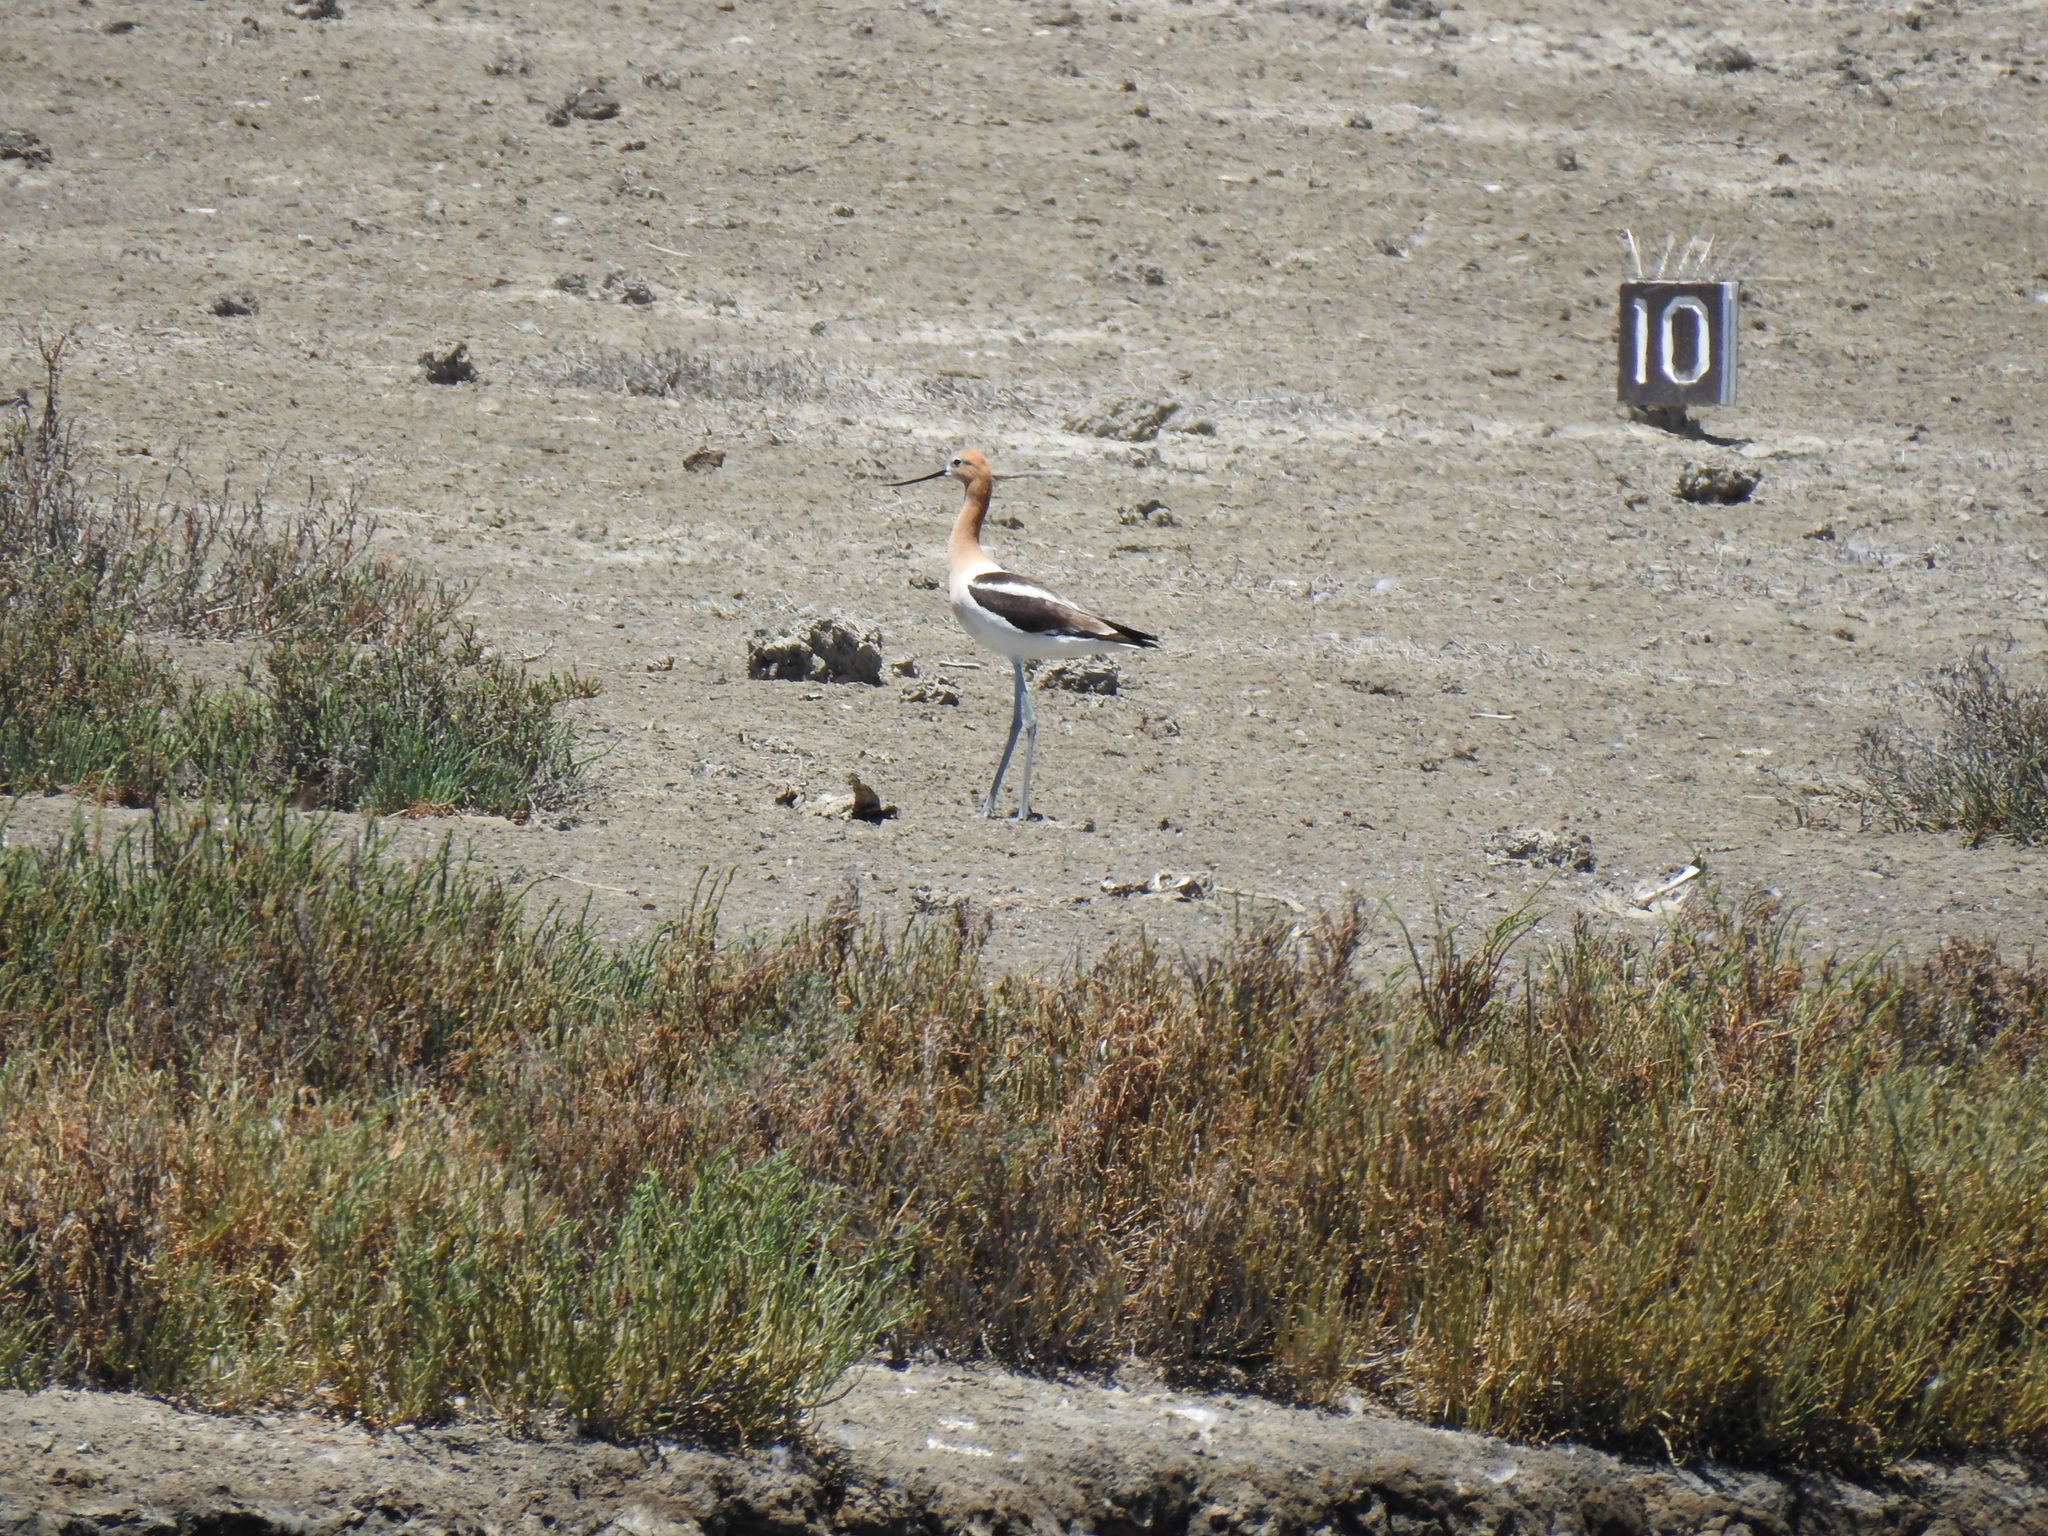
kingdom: Animalia
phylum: Chordata
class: Aves
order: Charadriiformes
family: Recurvirostridae
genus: Recurvirostra
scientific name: Recurvirostra americana
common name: American avocet
